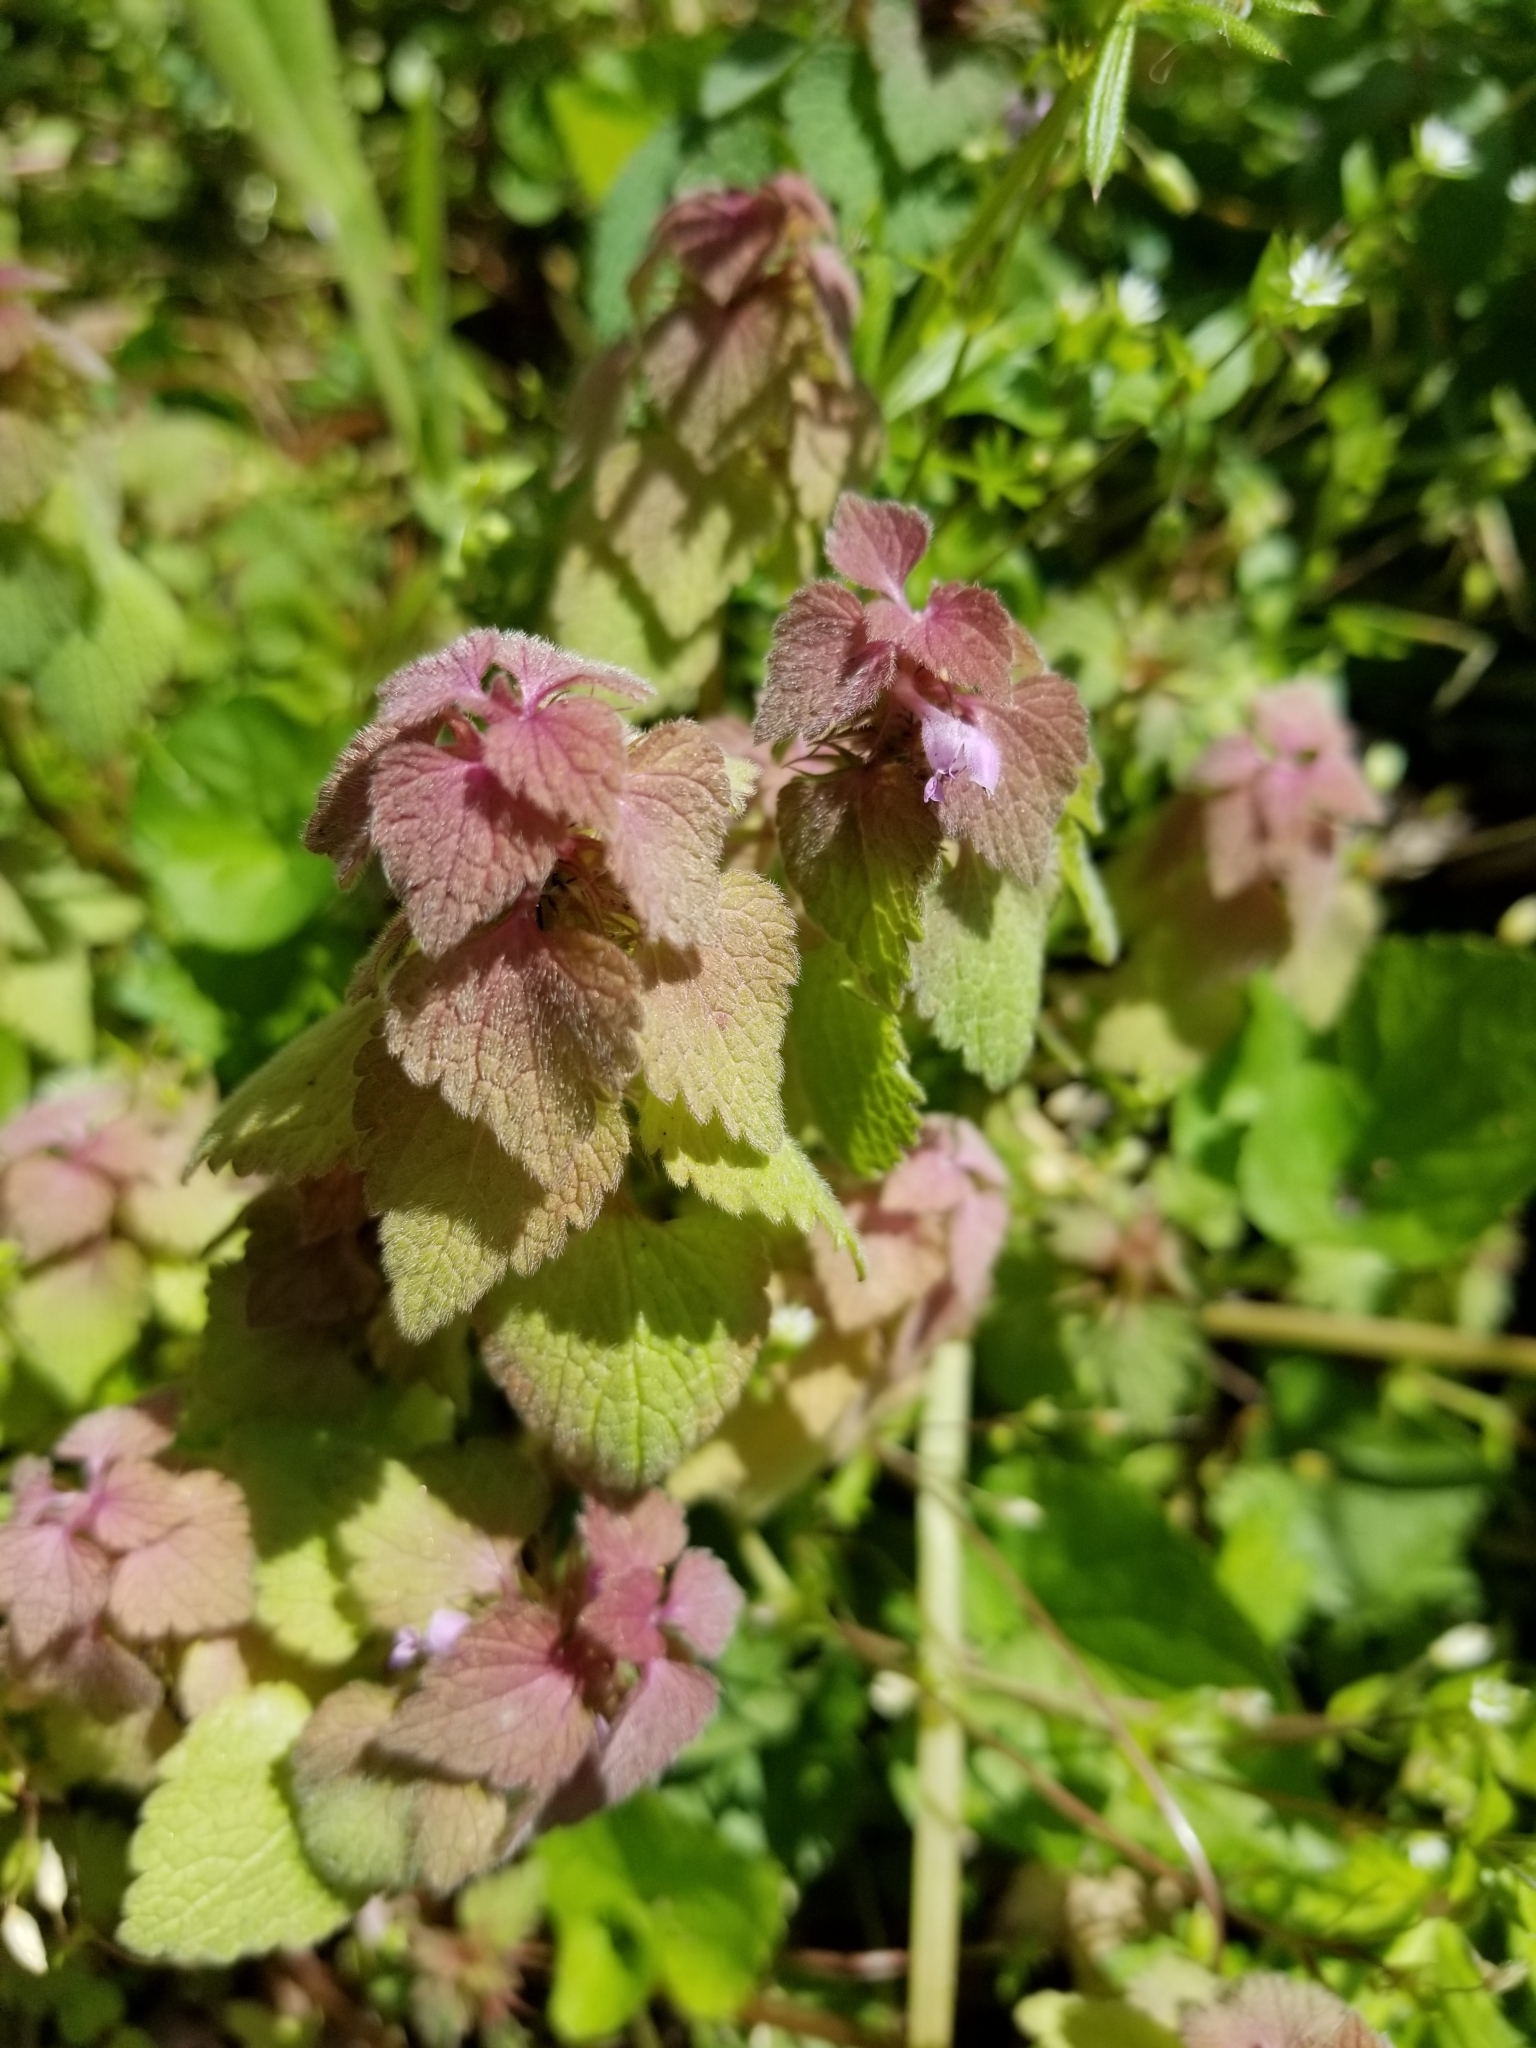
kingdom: Plantae
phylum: Tracheophyta
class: Magnoliopsida
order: Lamiales
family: Lamiaceae
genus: Lamium
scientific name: Lamium purpureum
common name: Red dead-nettle
